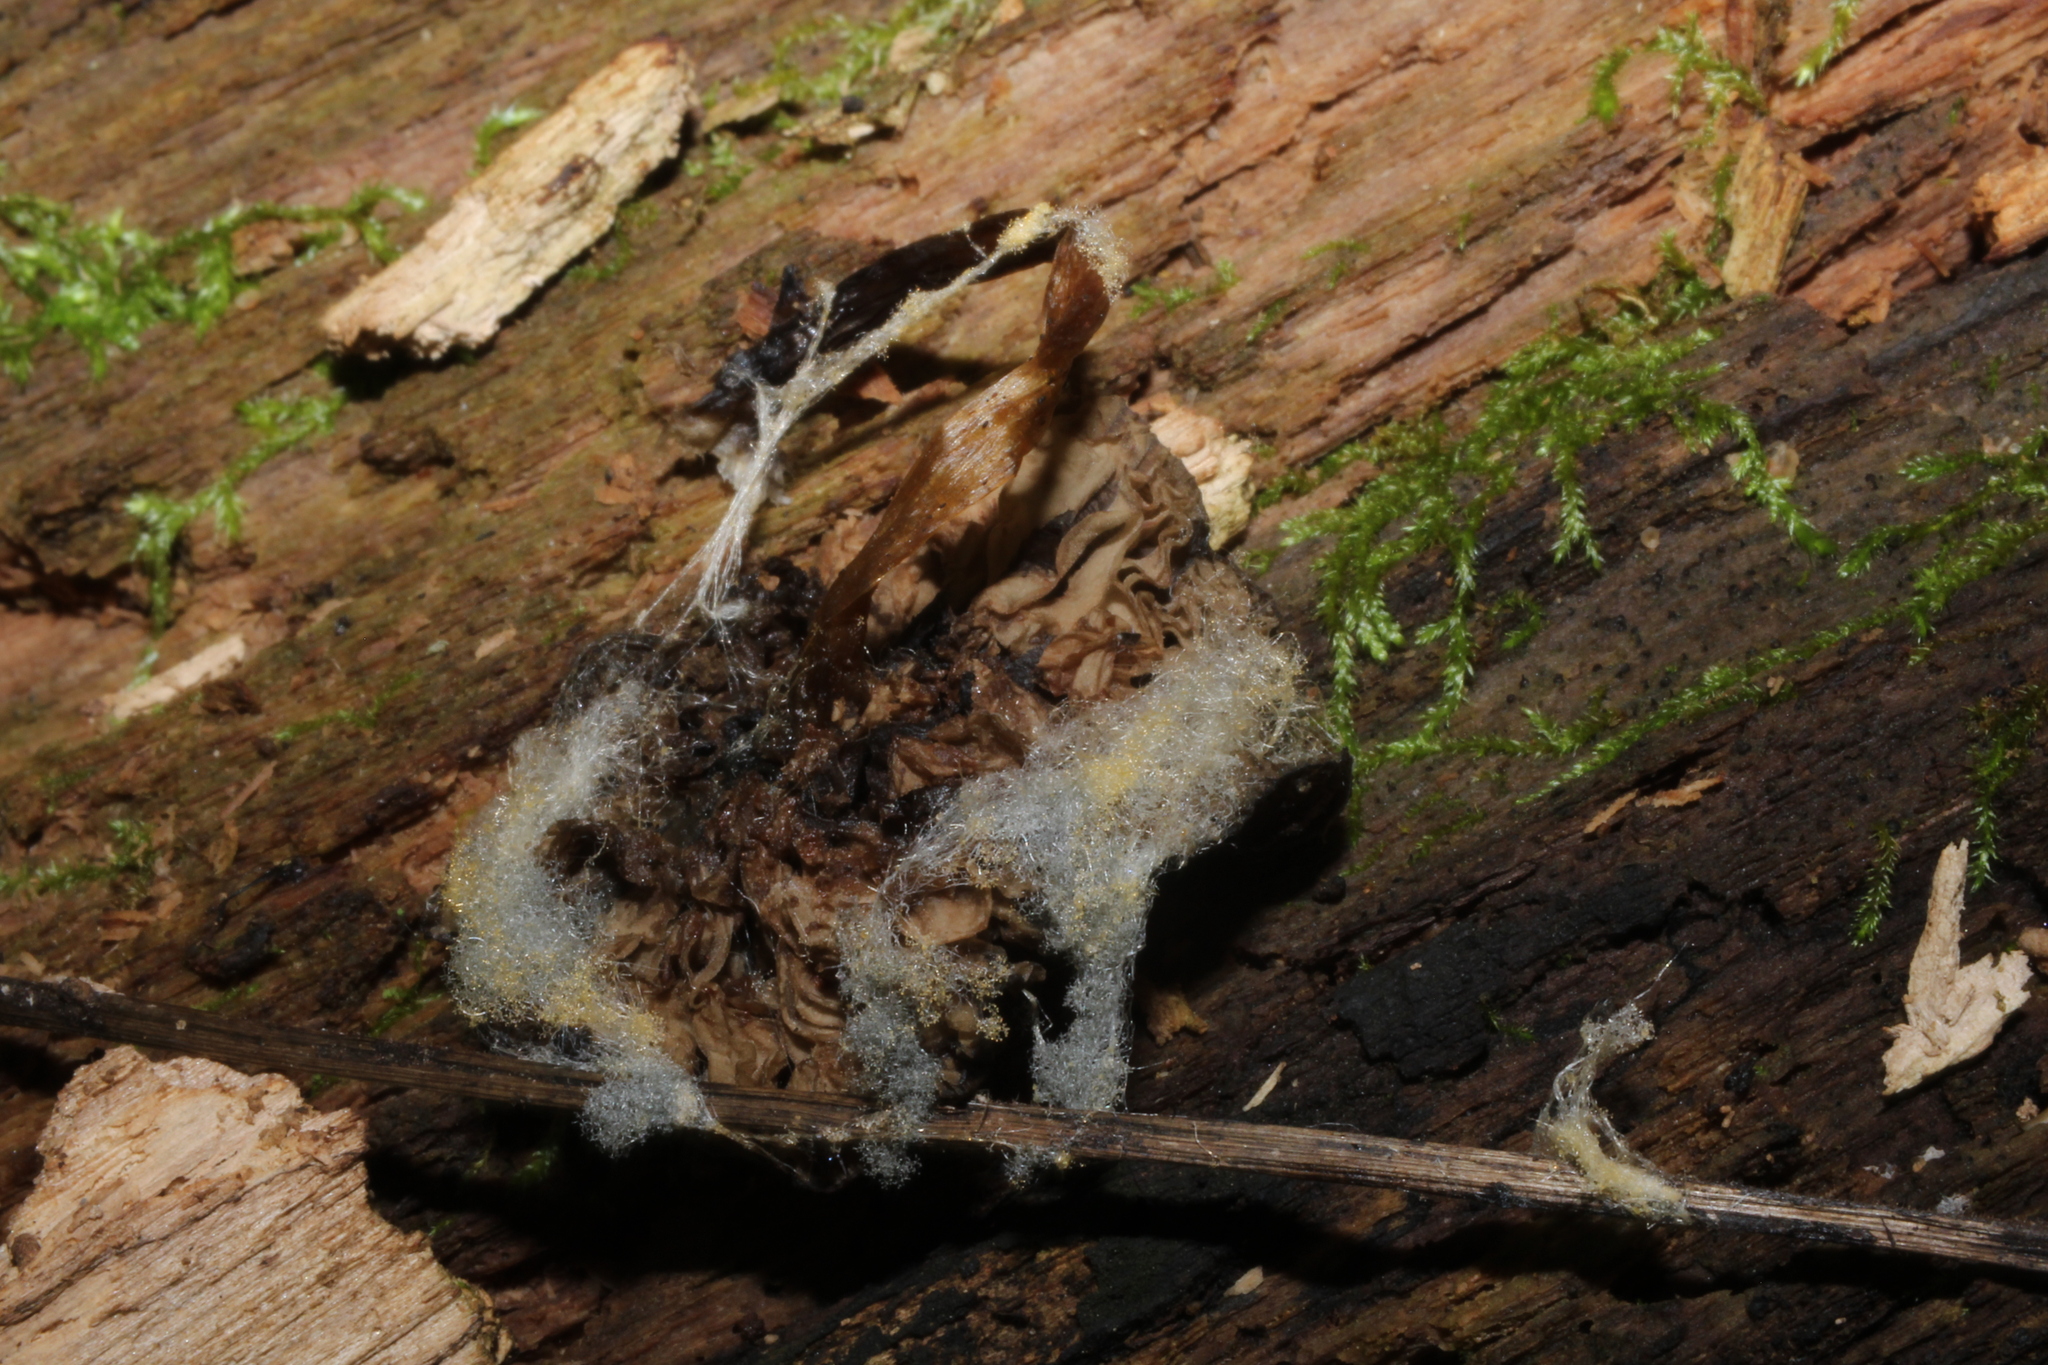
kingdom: Fungi
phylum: Mucoromycota
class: Mucoromycetes
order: Mucorales
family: Rhizopodaceae
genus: Syzygites
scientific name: Syzygites megalocarpus
